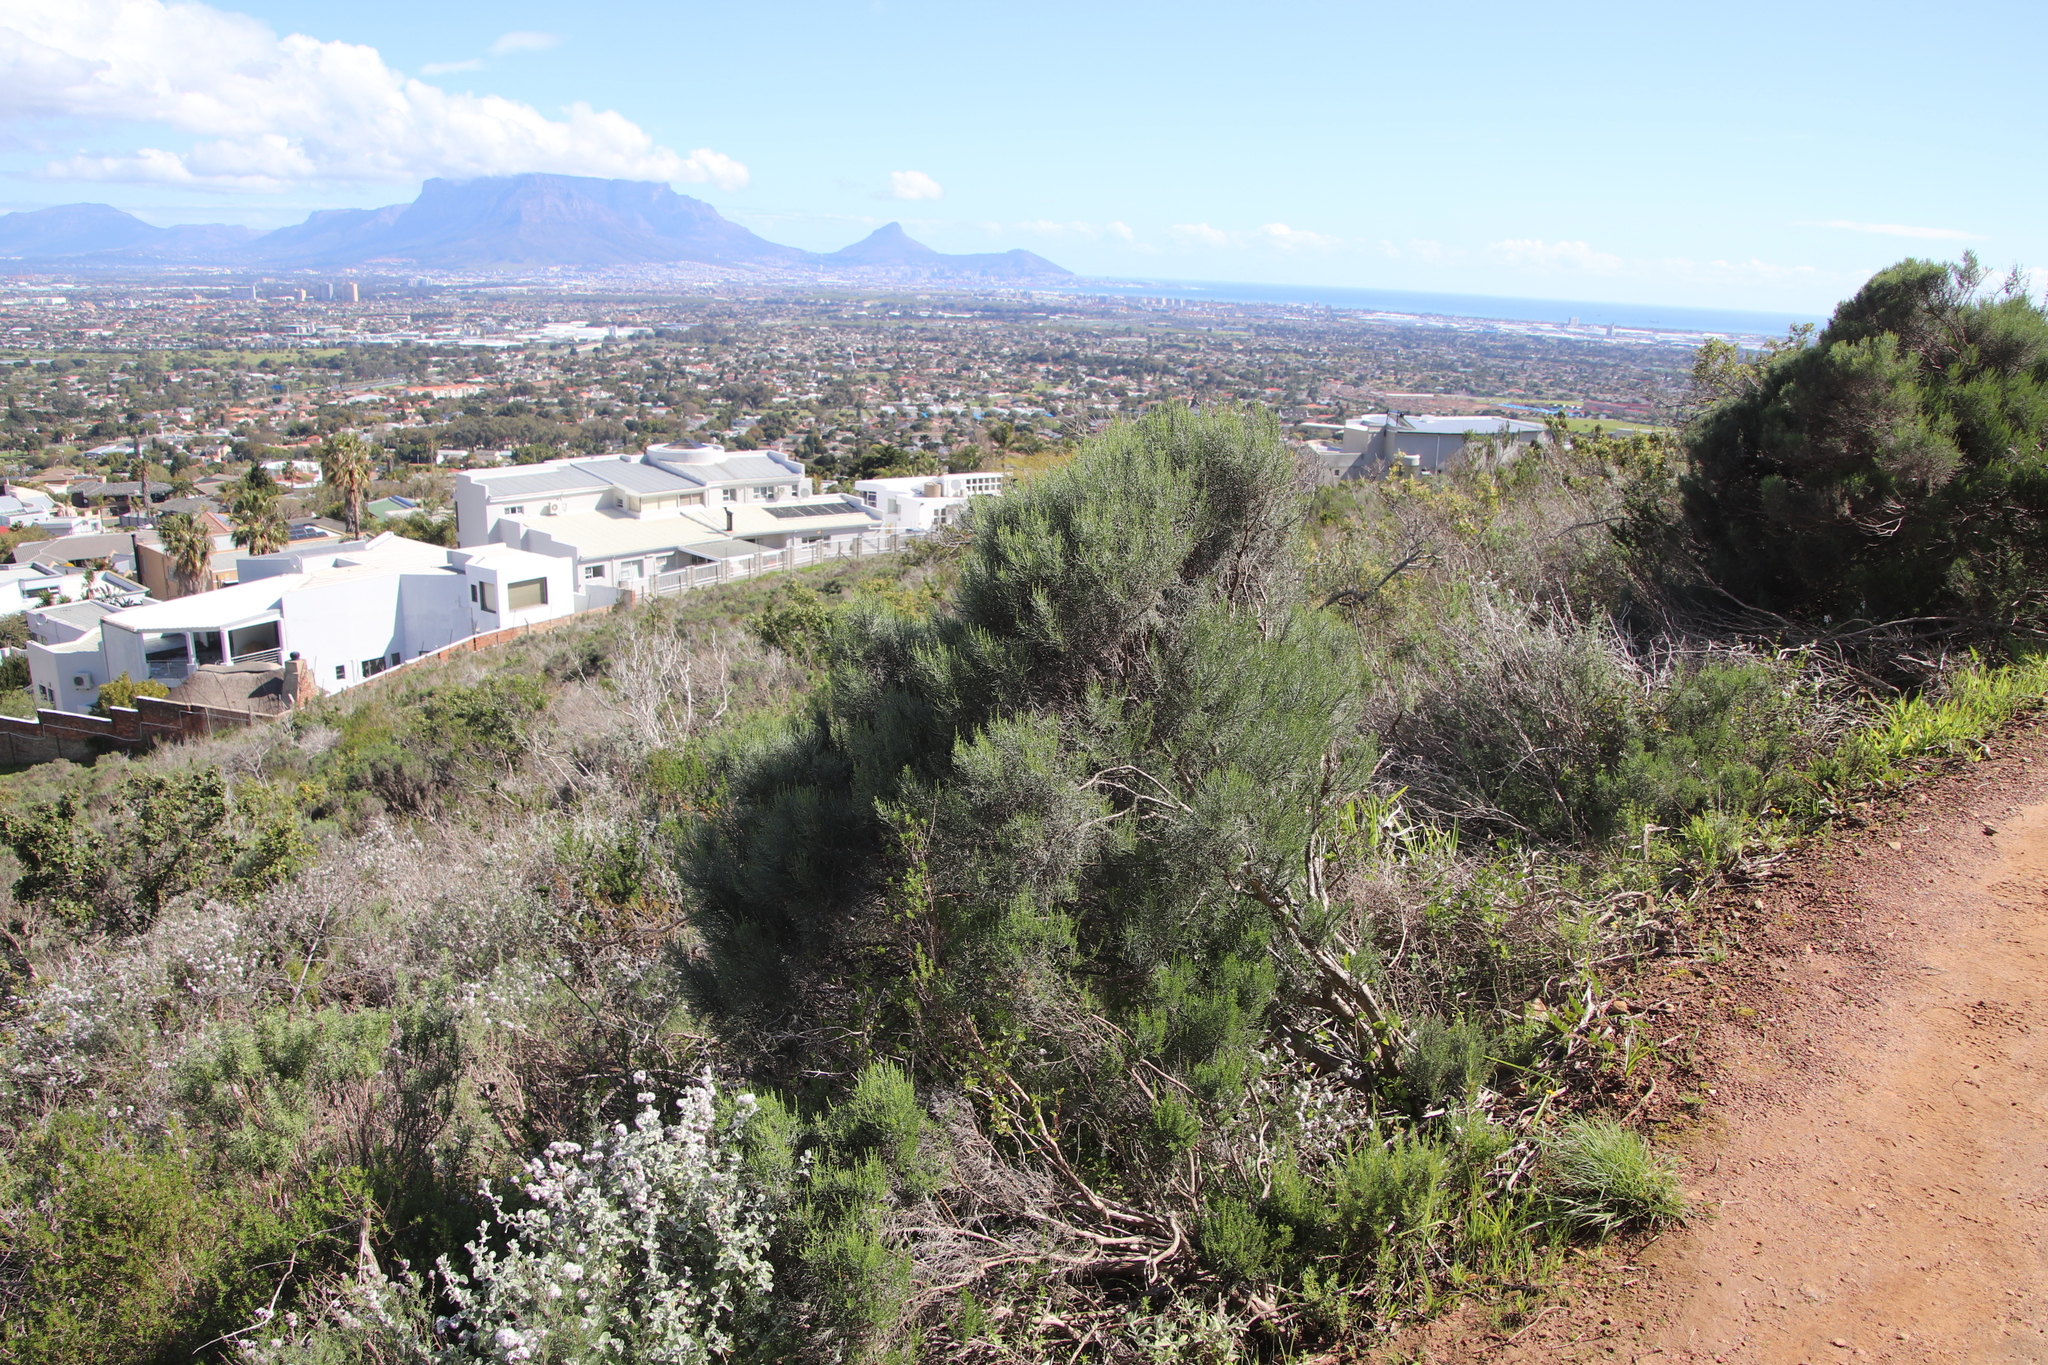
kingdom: Plantae
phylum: Tracheophyta
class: Magnoliopsida
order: Asterales
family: Asteraceae
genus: Dicerothamnus
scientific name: Dicerothamnus rhinocerotis
